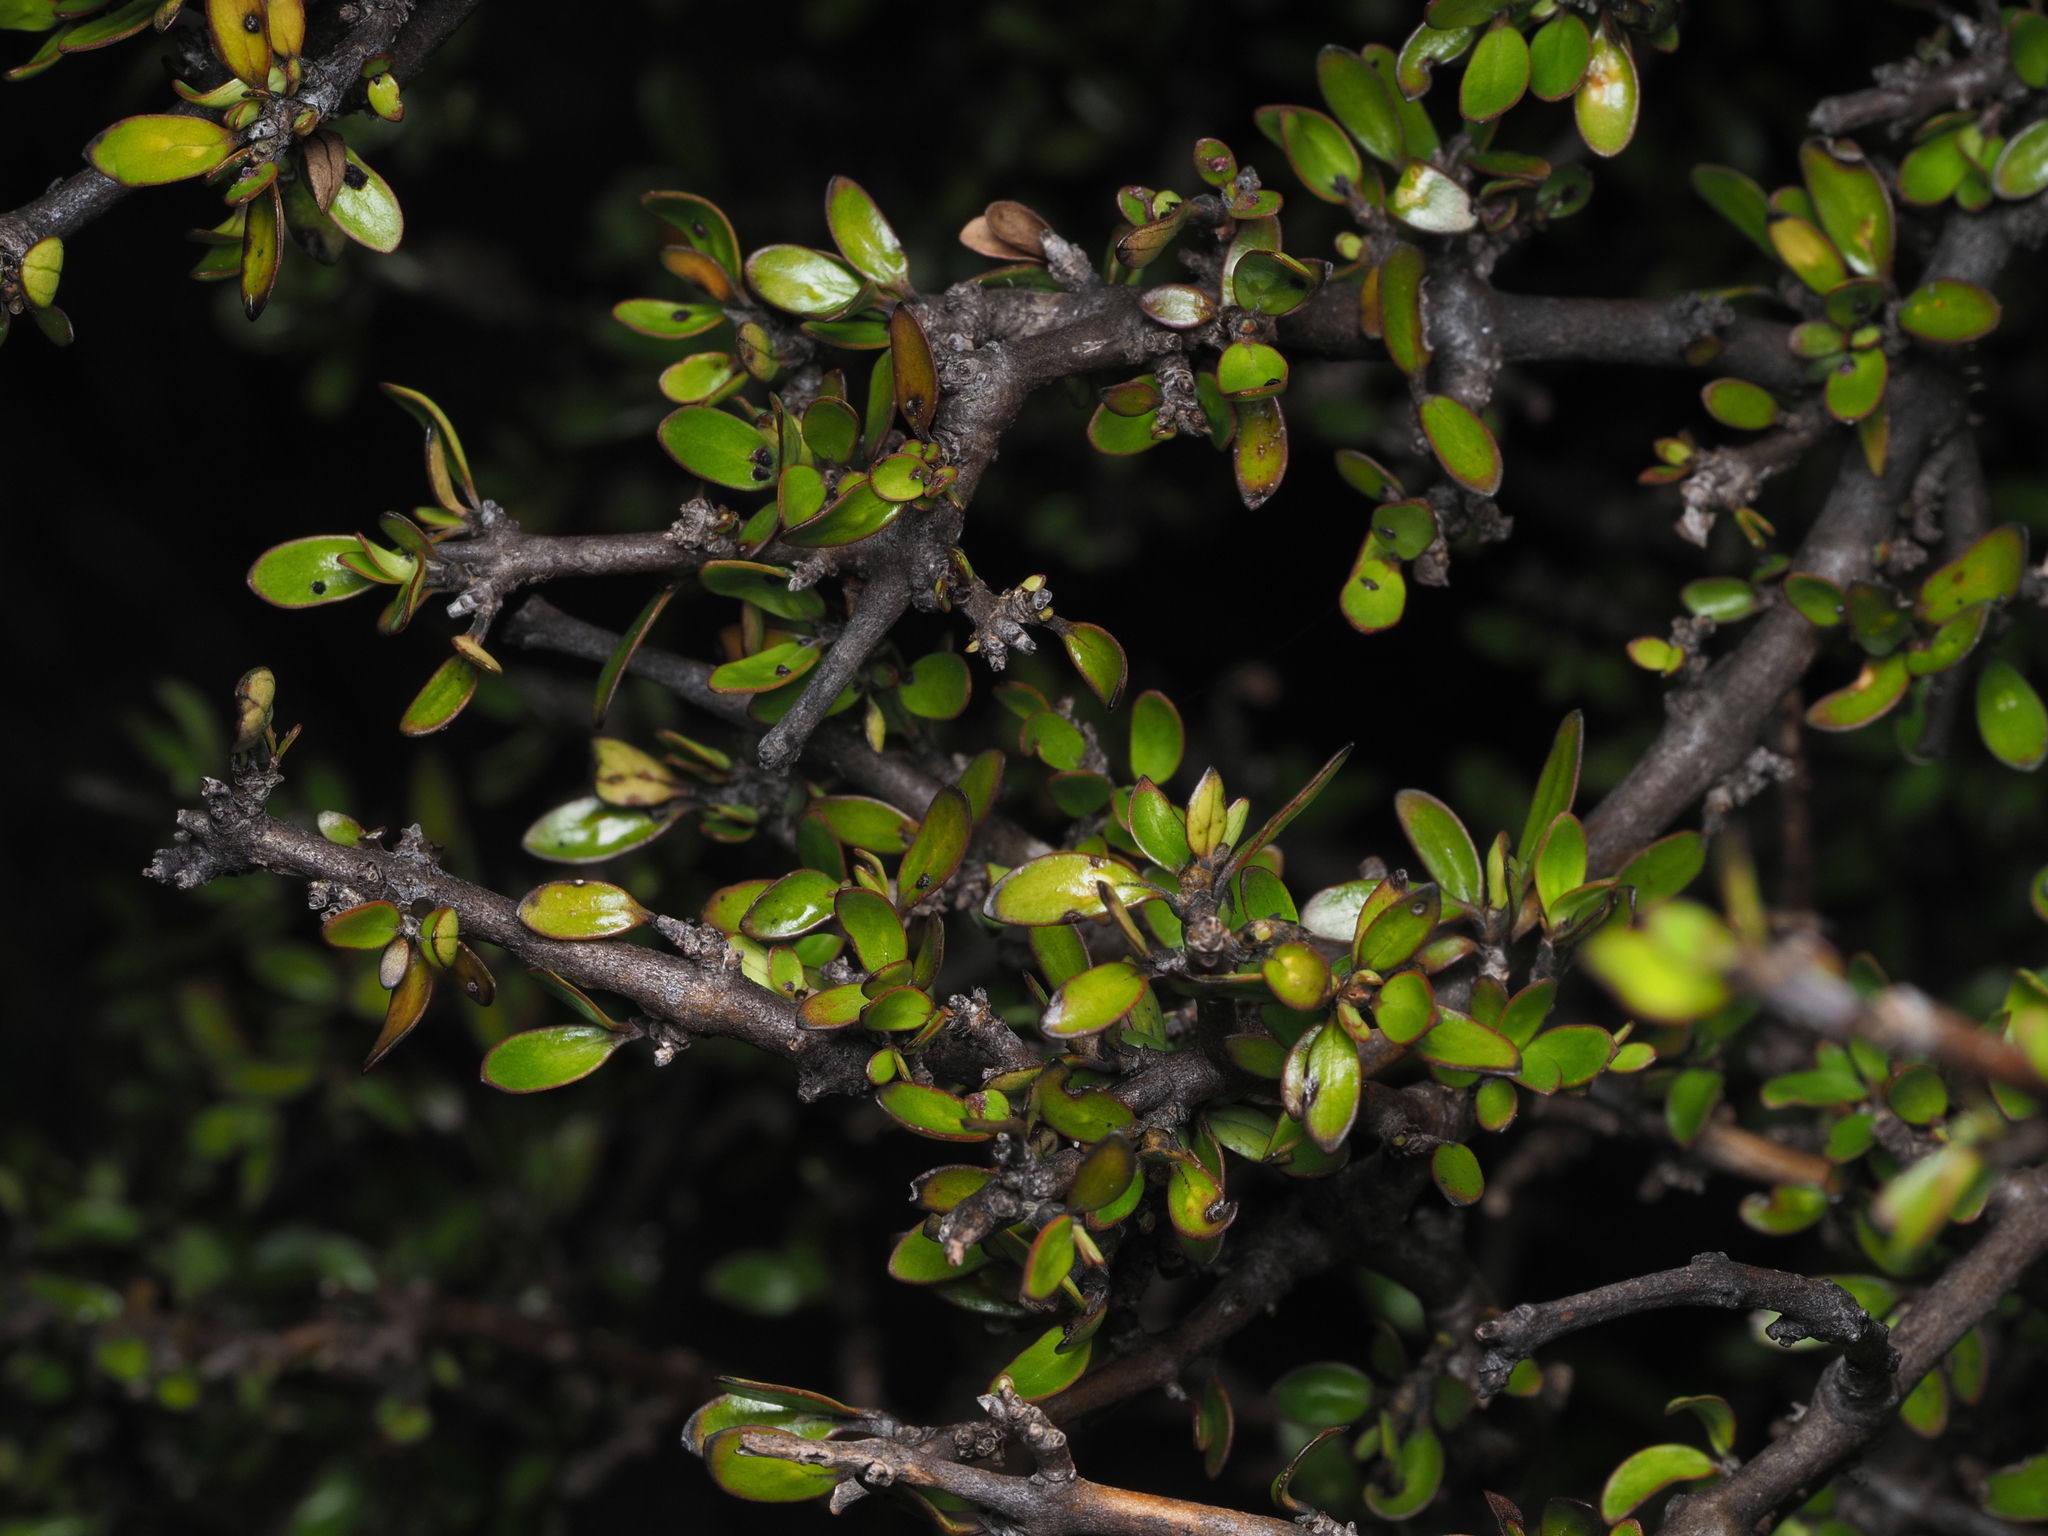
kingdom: Plantae
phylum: Tracheophyta
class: Magnoliopsida
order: Gentianales
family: Rubiaceae
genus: Coprosma
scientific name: Coprosma propinqua
